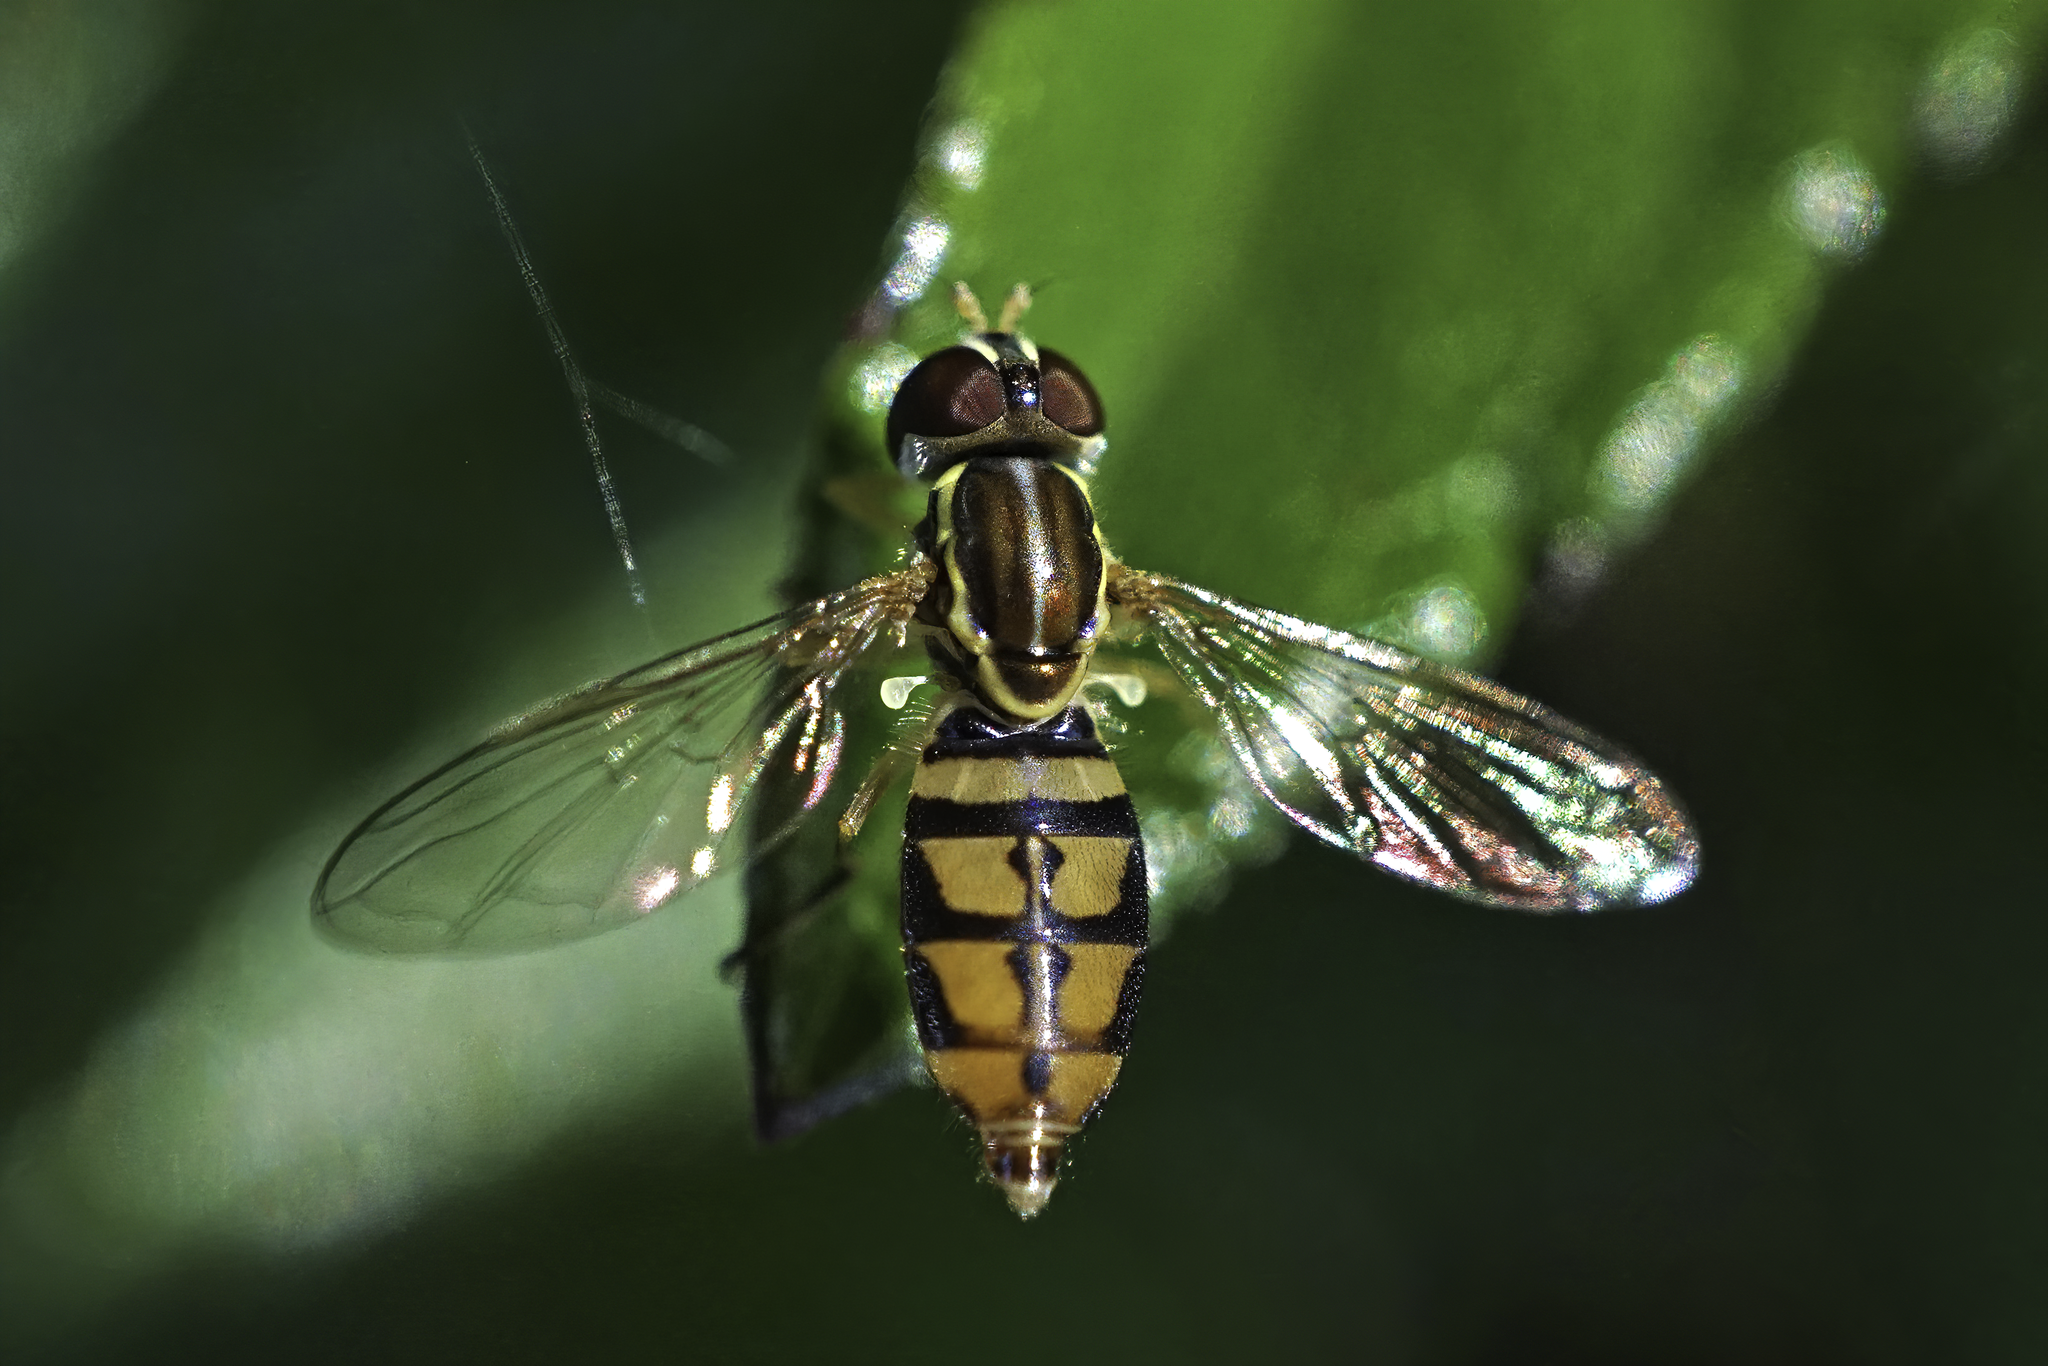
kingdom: Animalia
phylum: Arthropoda
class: Insecta
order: Diptera
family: Syrphidae
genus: Toxomerus
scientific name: Toxomerus floralis
